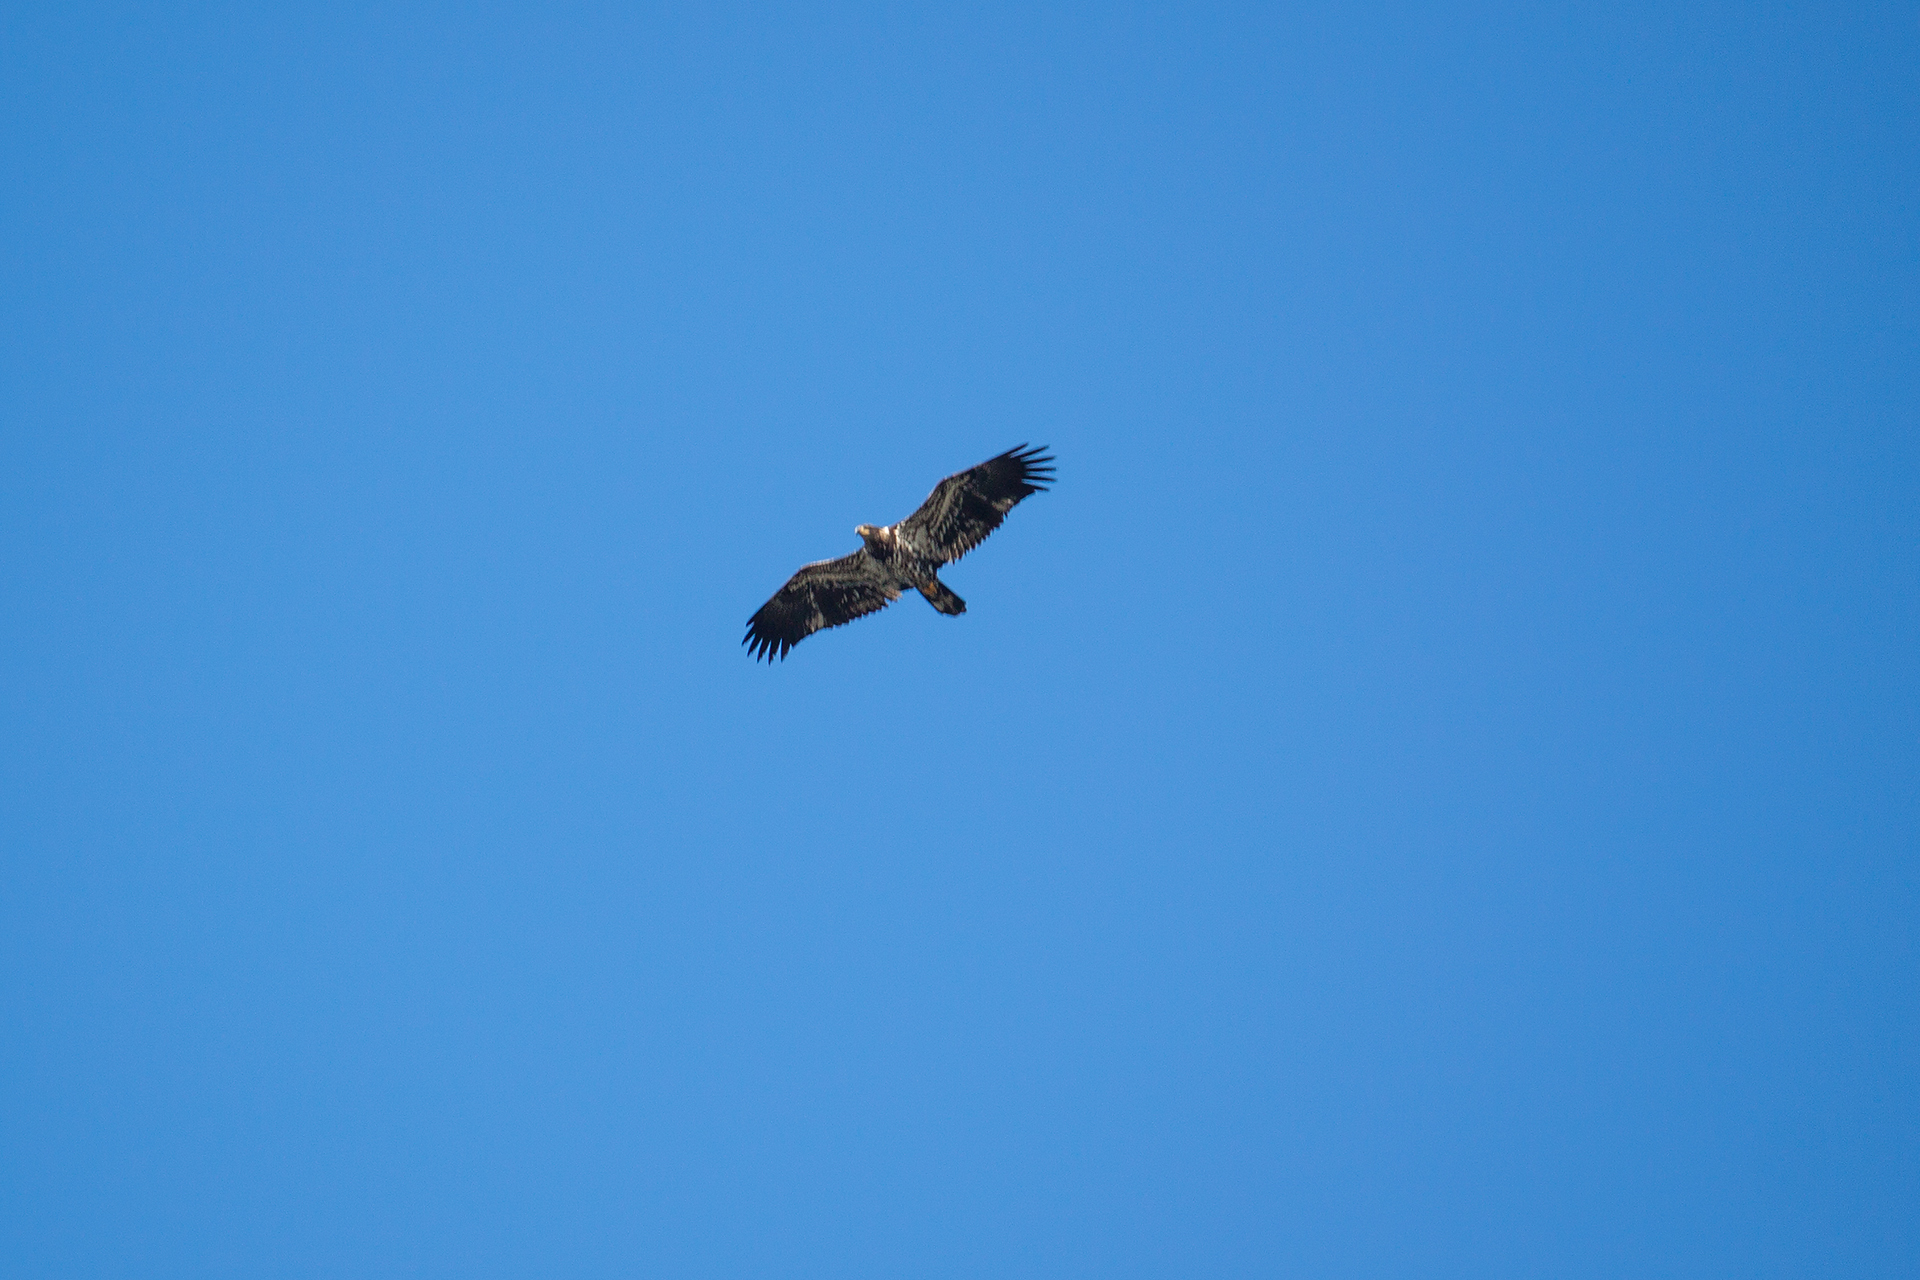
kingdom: Animalia
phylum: Chordata
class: Aves
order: Accipitriformes
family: Accipitridae
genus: Haliaeetus
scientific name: Haliaeetus leucocephalus
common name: Bald eagle
